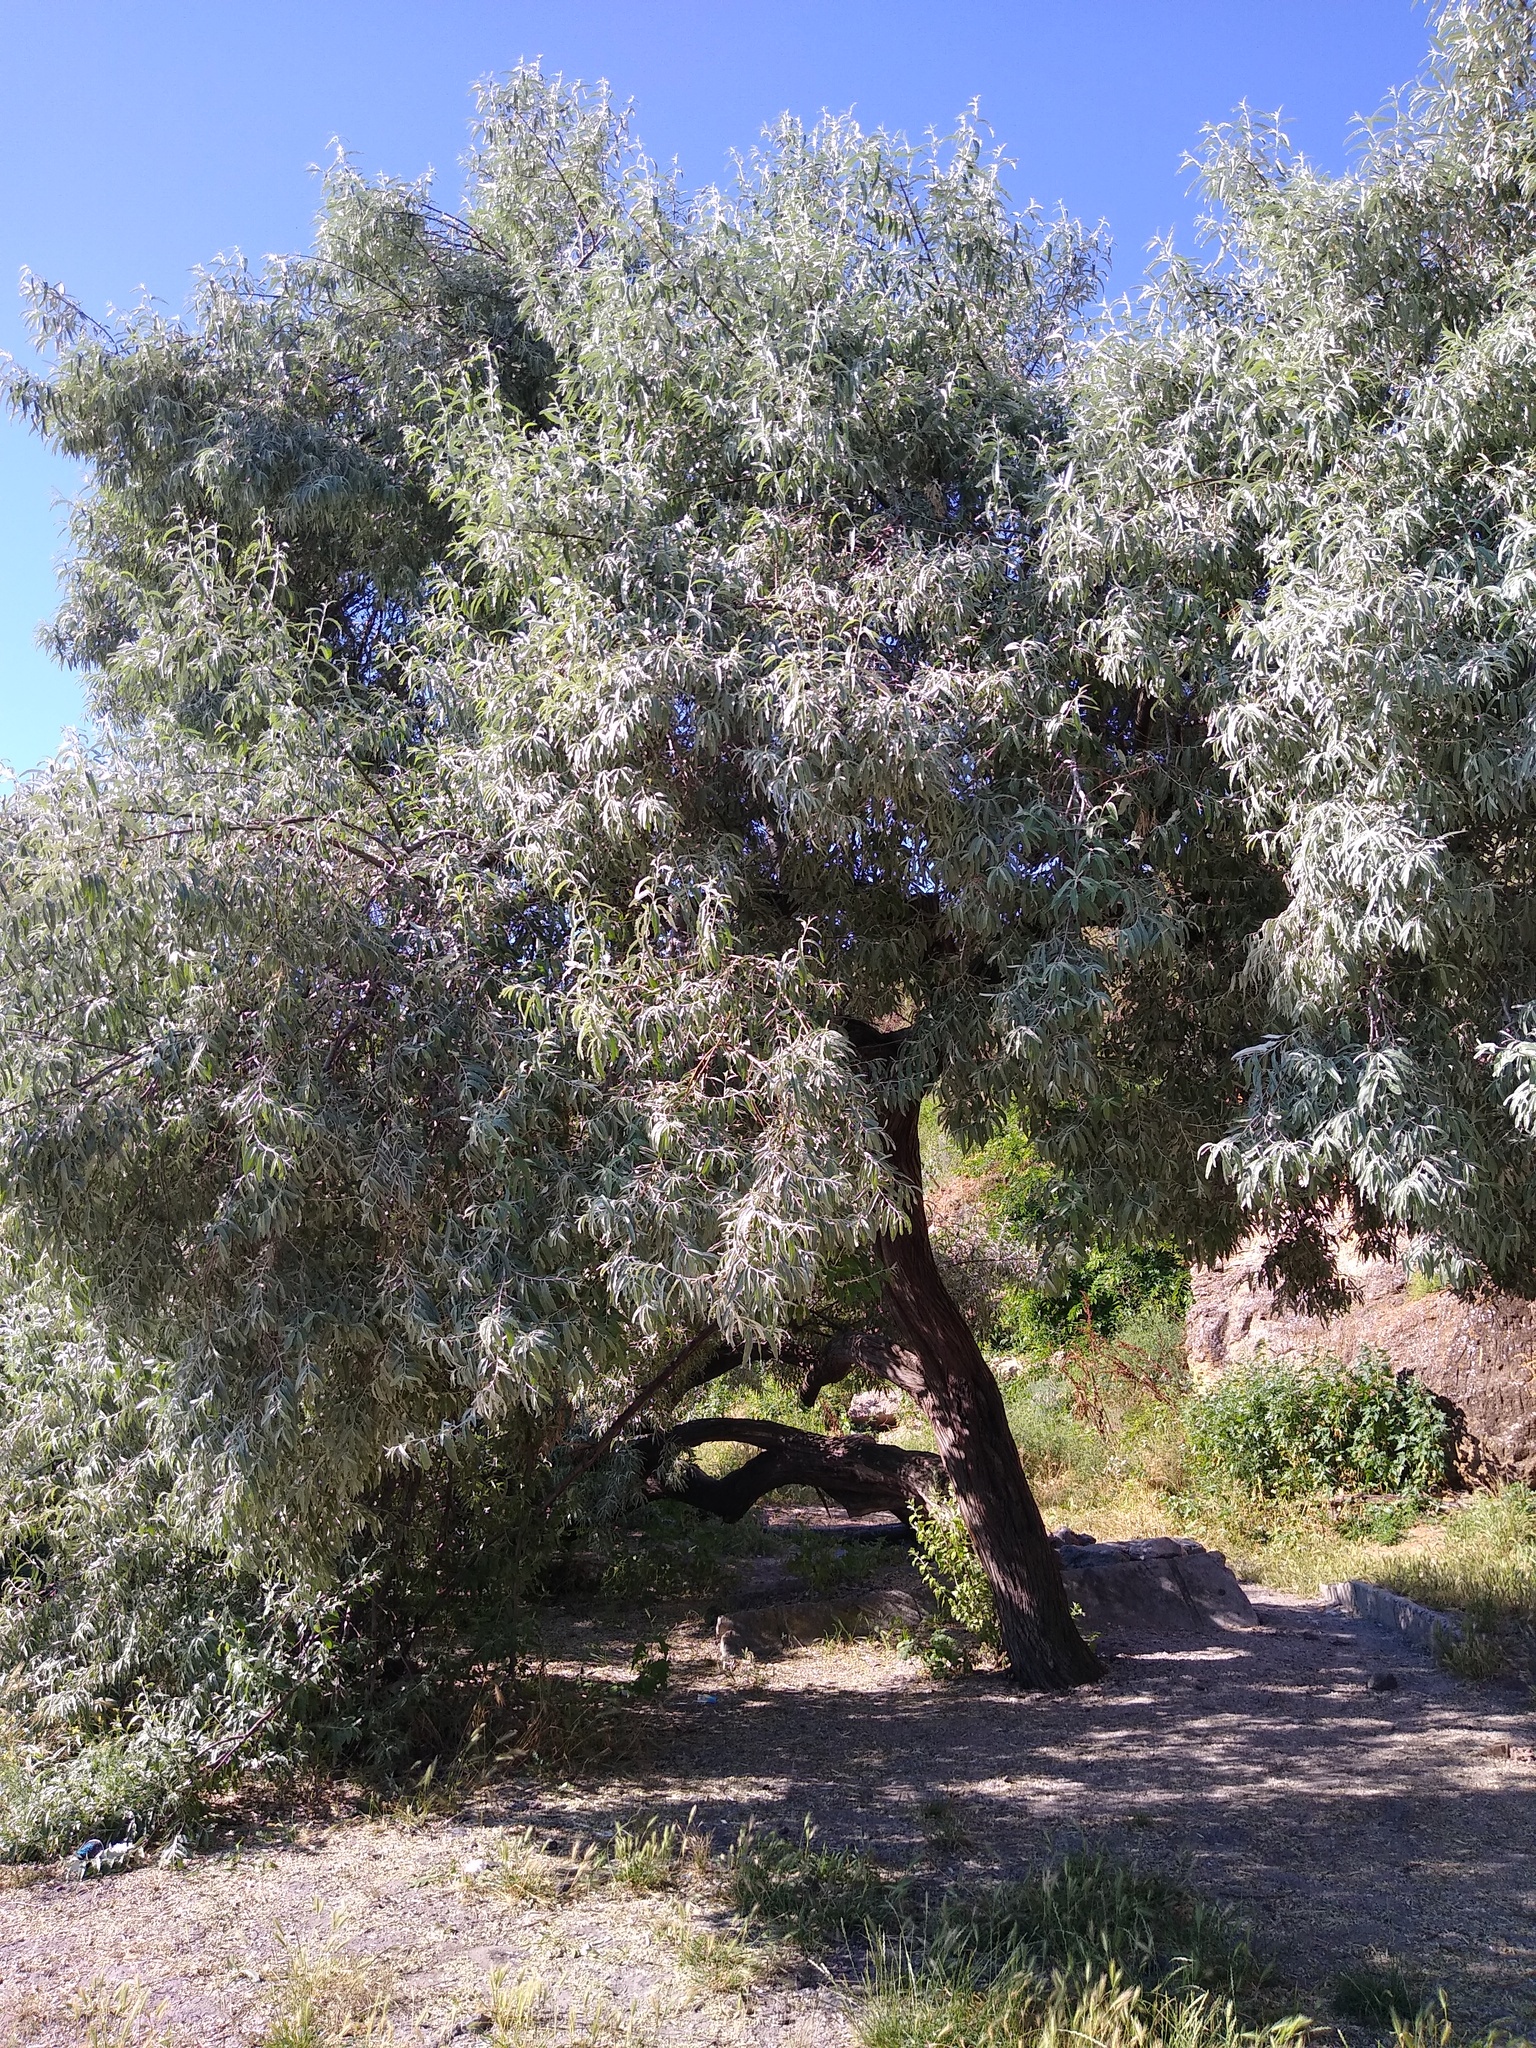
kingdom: Plantae
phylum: Tracheophyta
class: Magnoliopsida
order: Rosales
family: Elaeagnaceae
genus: Elaeagnus
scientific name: Elaeagnus angustifolia
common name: Russian olive
